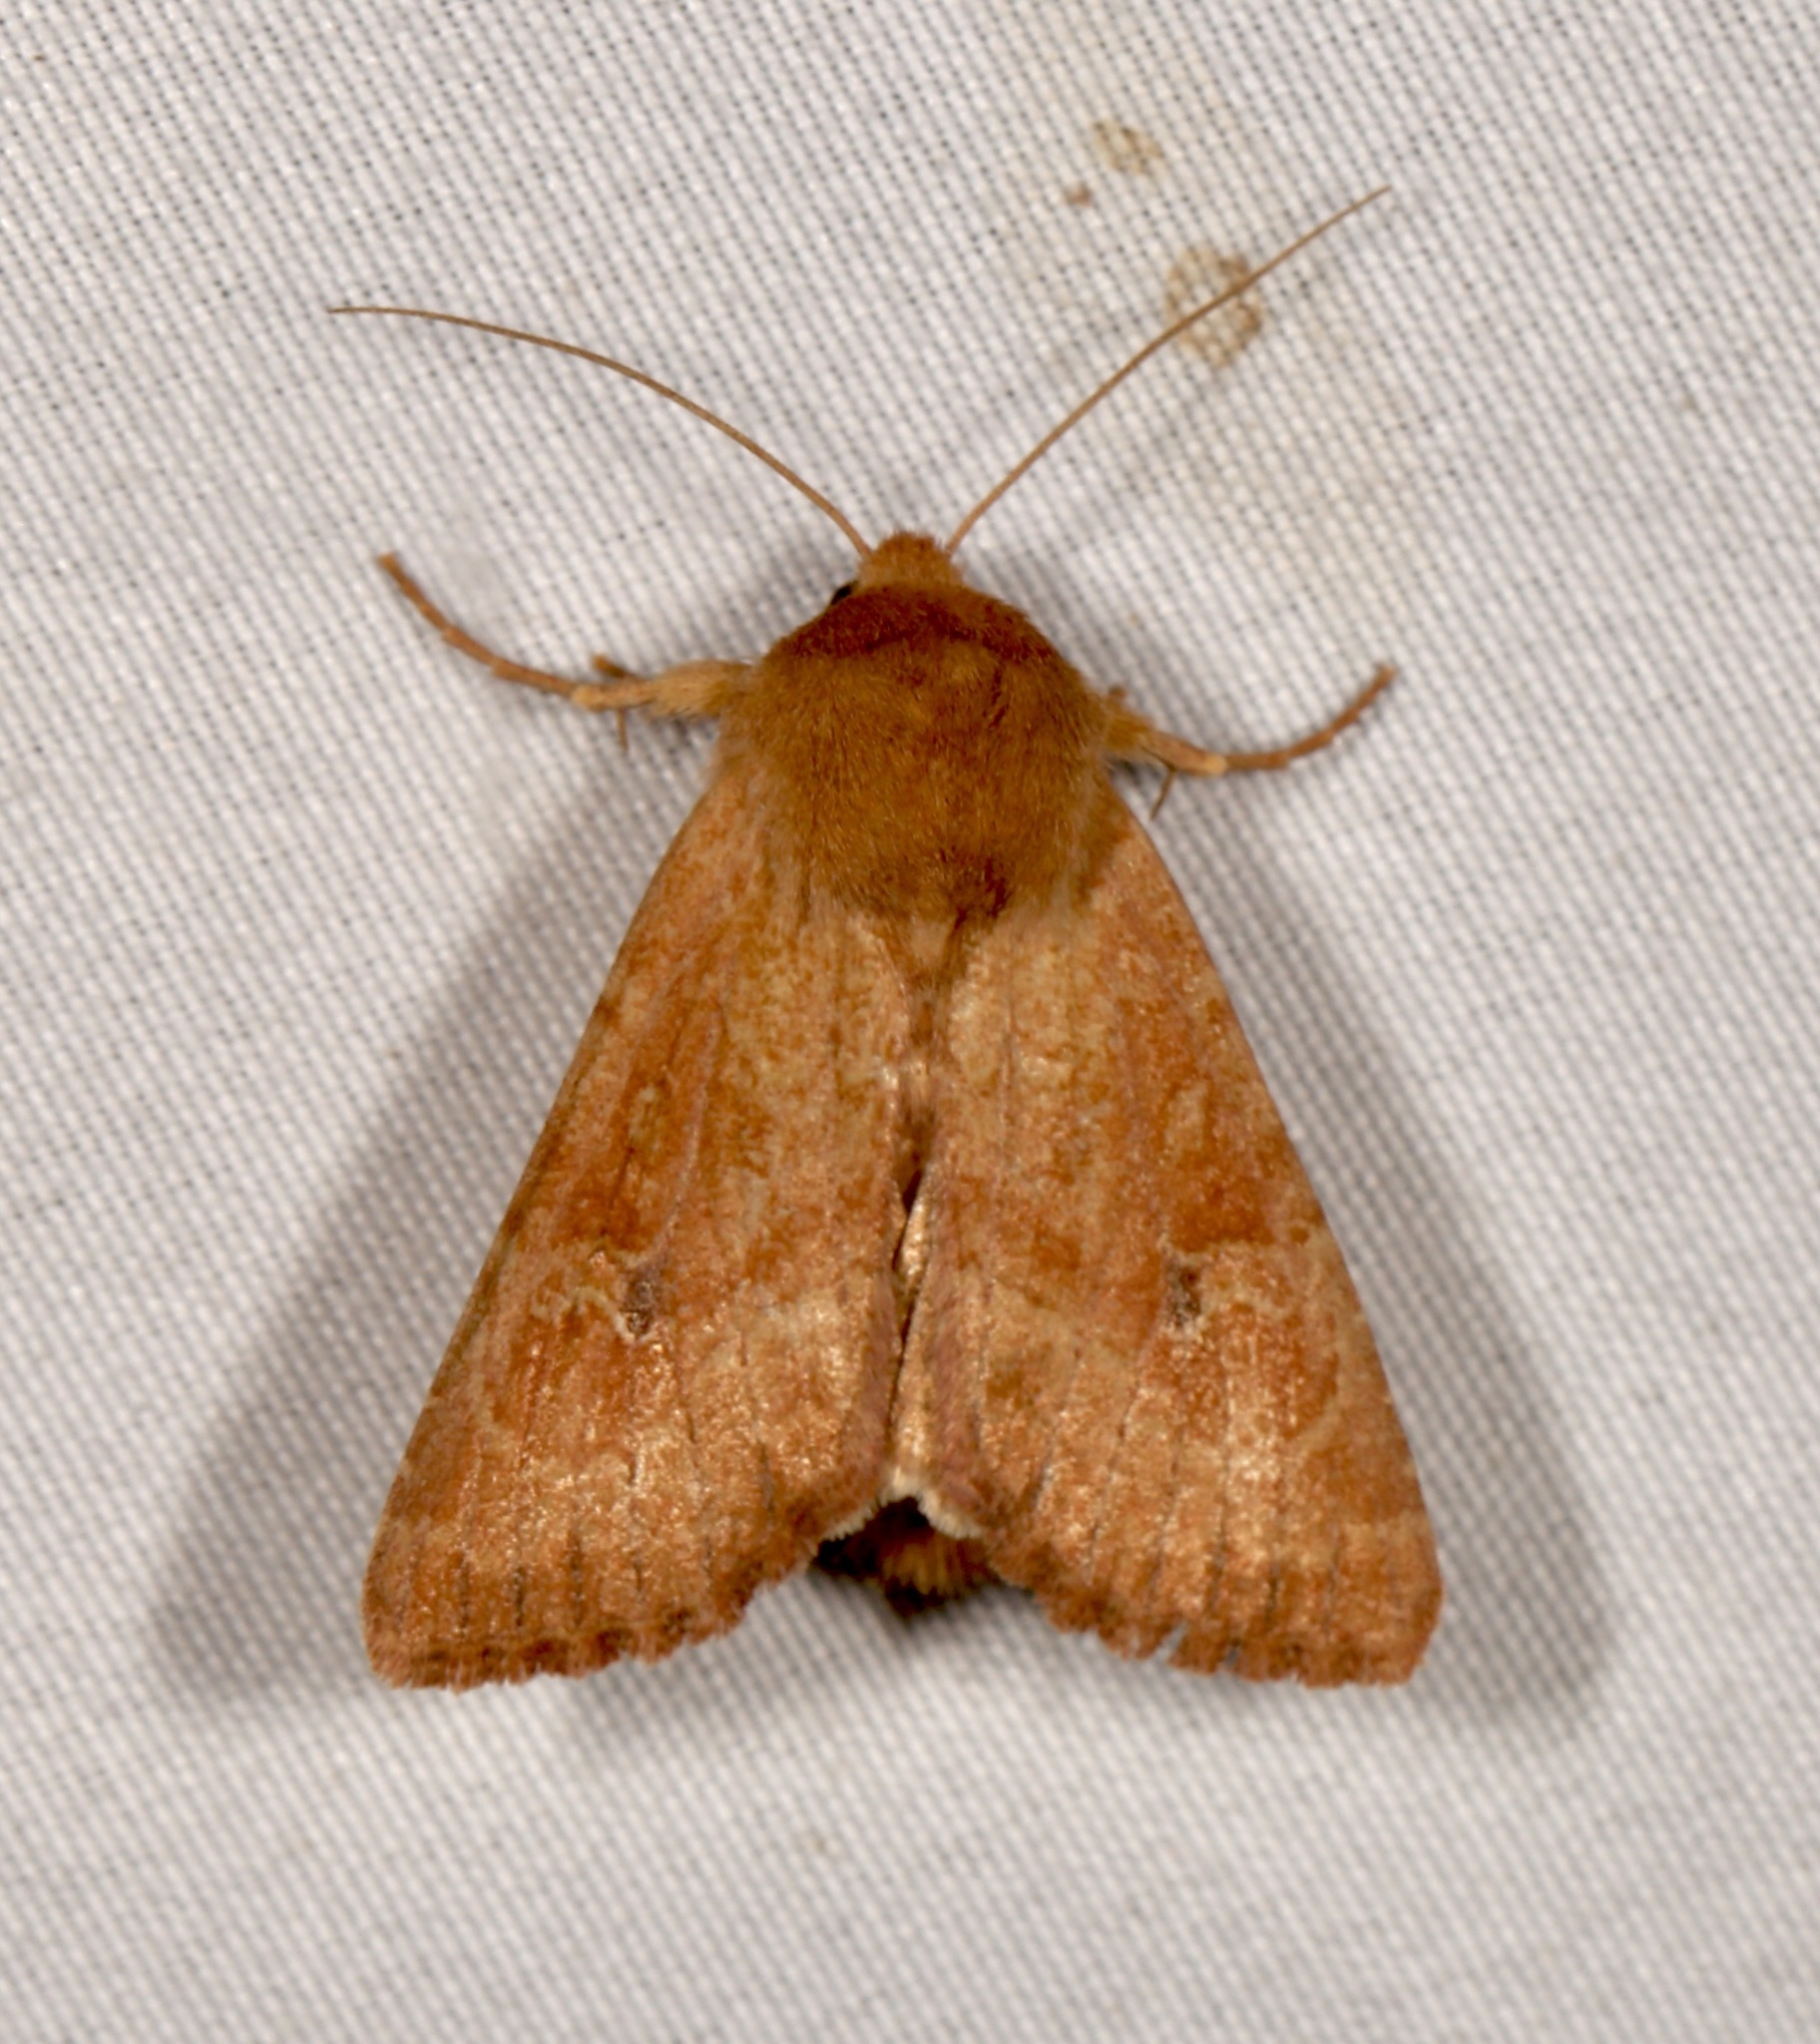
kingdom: Animalia
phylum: Arthropoda
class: Insecta
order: Lepidoptera
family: Noctuidae
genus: Apamea
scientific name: Apamea inficita
